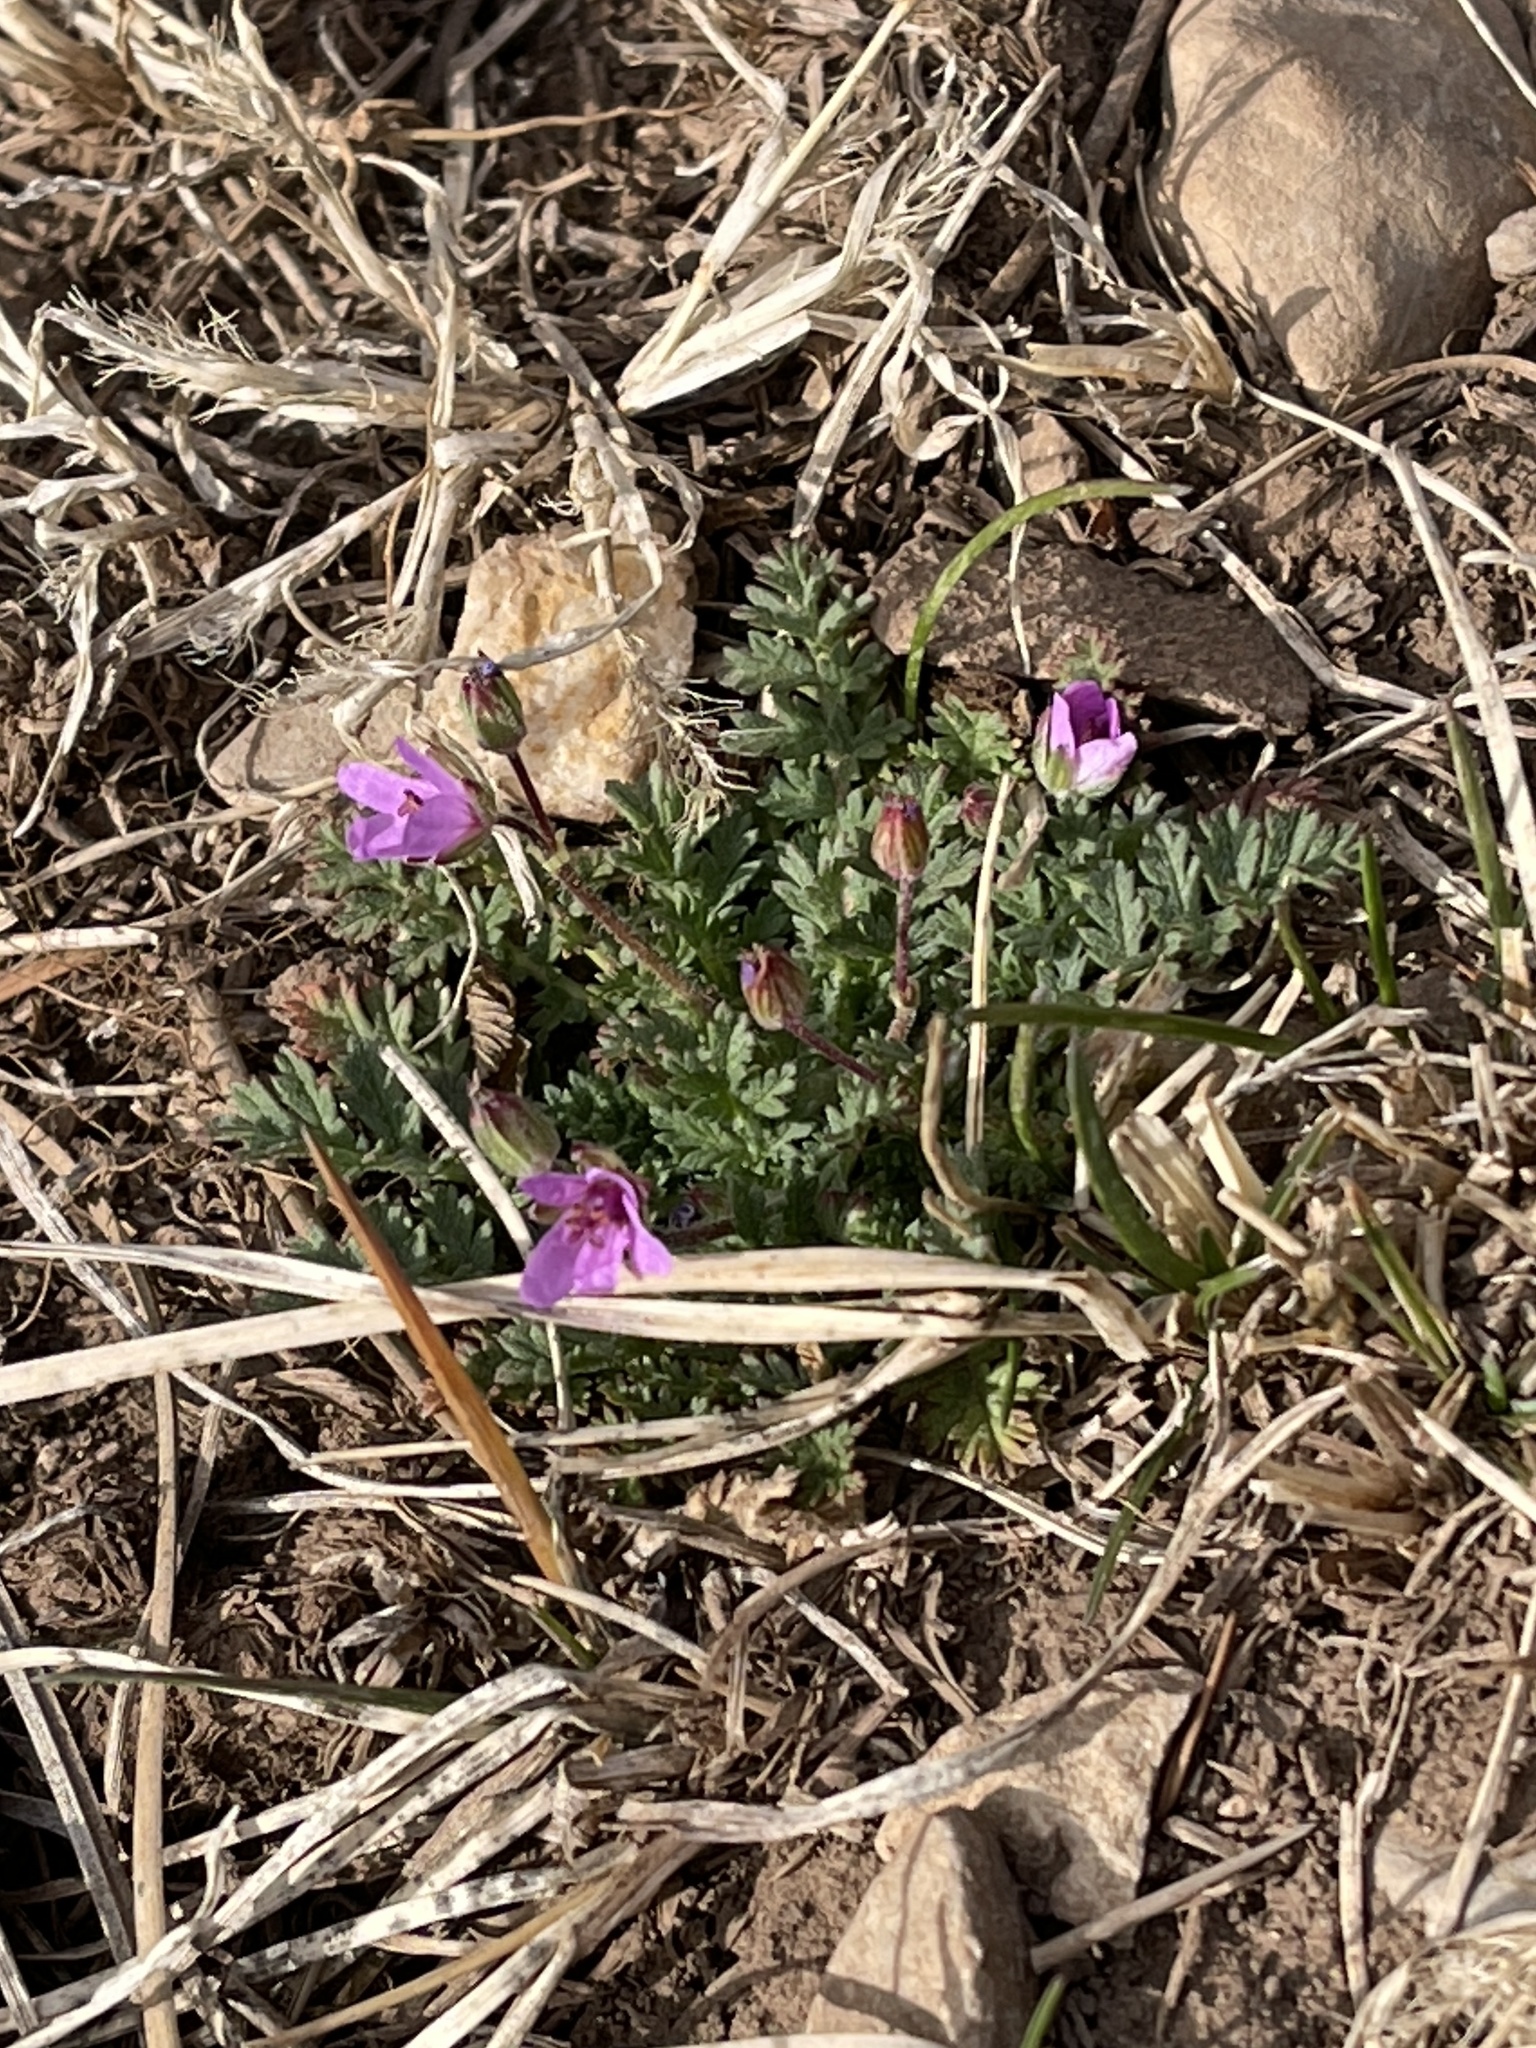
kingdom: Plantae
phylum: Tracheophyta
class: Magnoliopsida
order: Geraniales
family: Geraniaceae
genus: Erodium
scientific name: Erodium cicutarium
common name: Common stork's-bill
